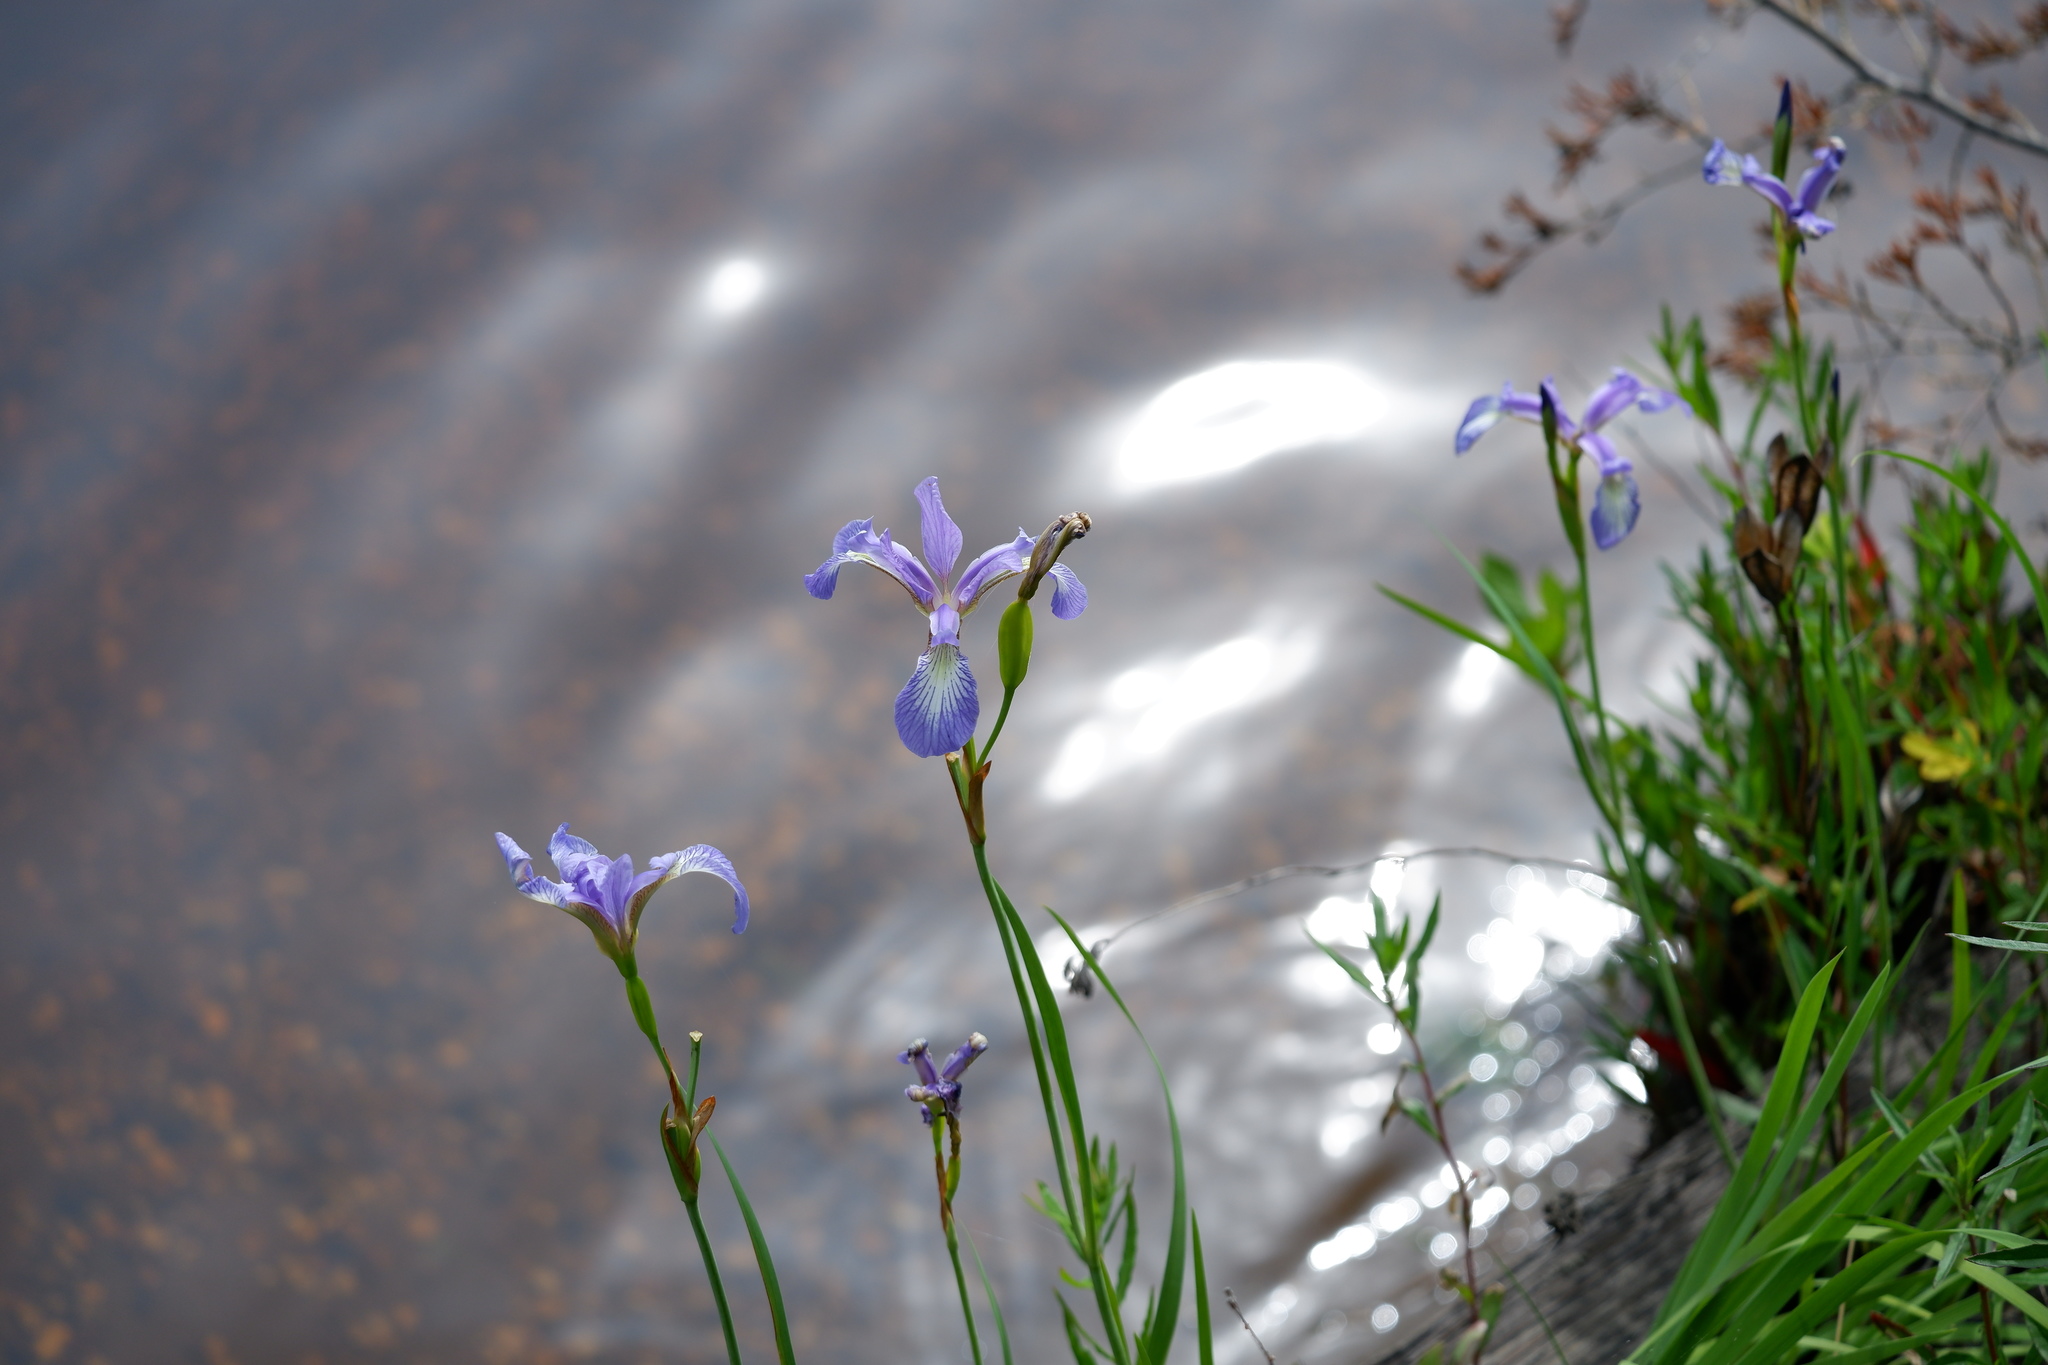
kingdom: Plantae
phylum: Tracheophyta
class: Liliopsida
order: Asparagales
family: Iridaceae
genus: Iris
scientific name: Iris prismatica
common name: Slender blue flag
